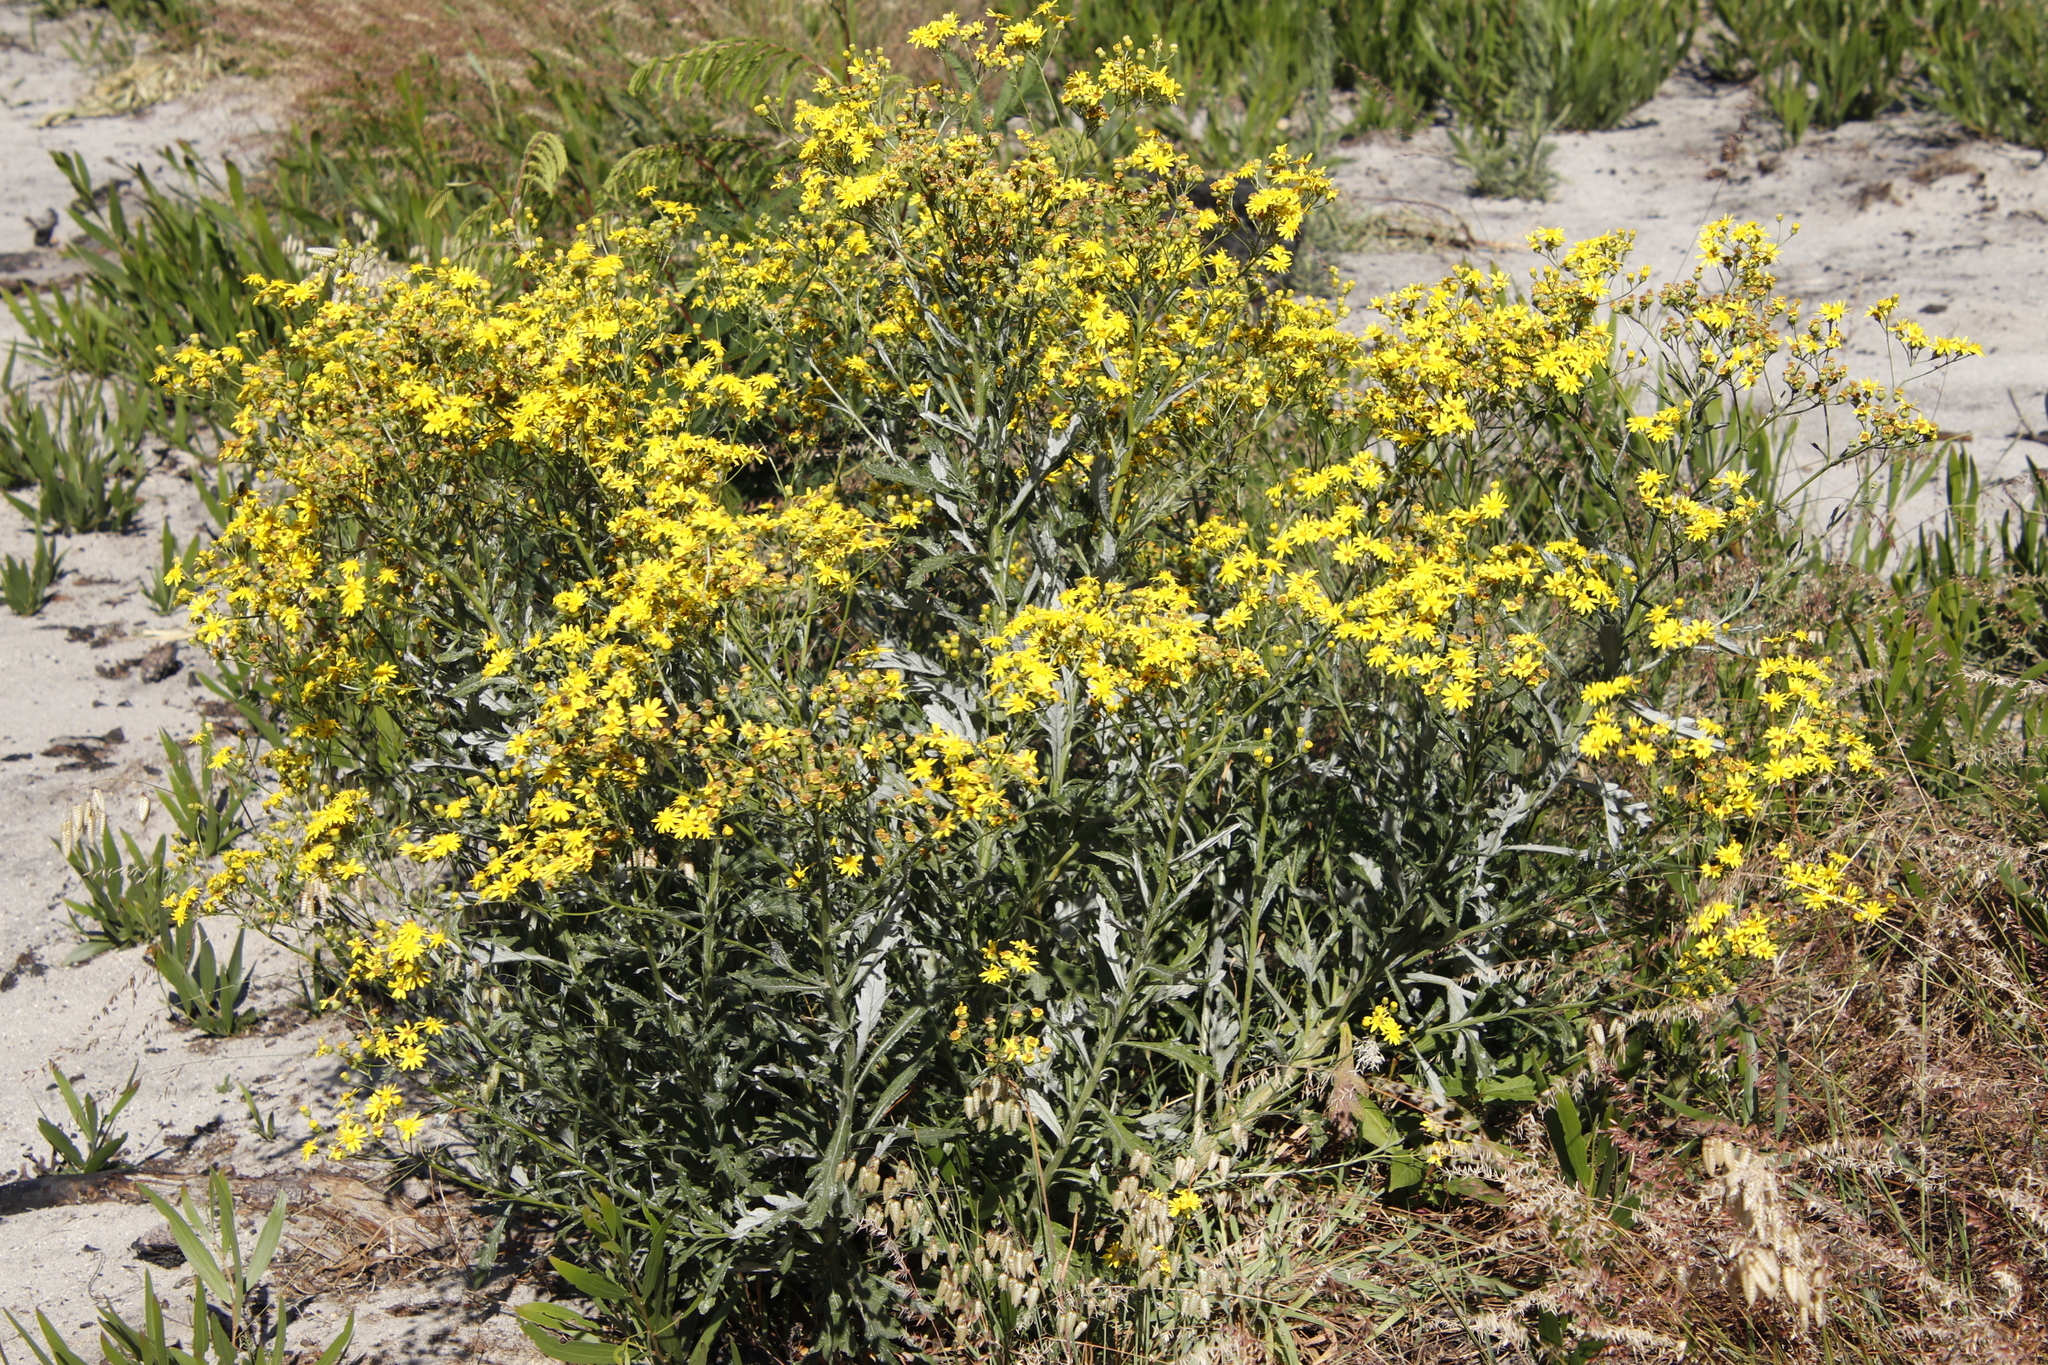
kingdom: Plantae
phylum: Tracheophyta
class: Magnoliopsida
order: Asterales
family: Asteraceae
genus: Senecio
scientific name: Senecio pterophorus
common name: Shoddy ragwort
